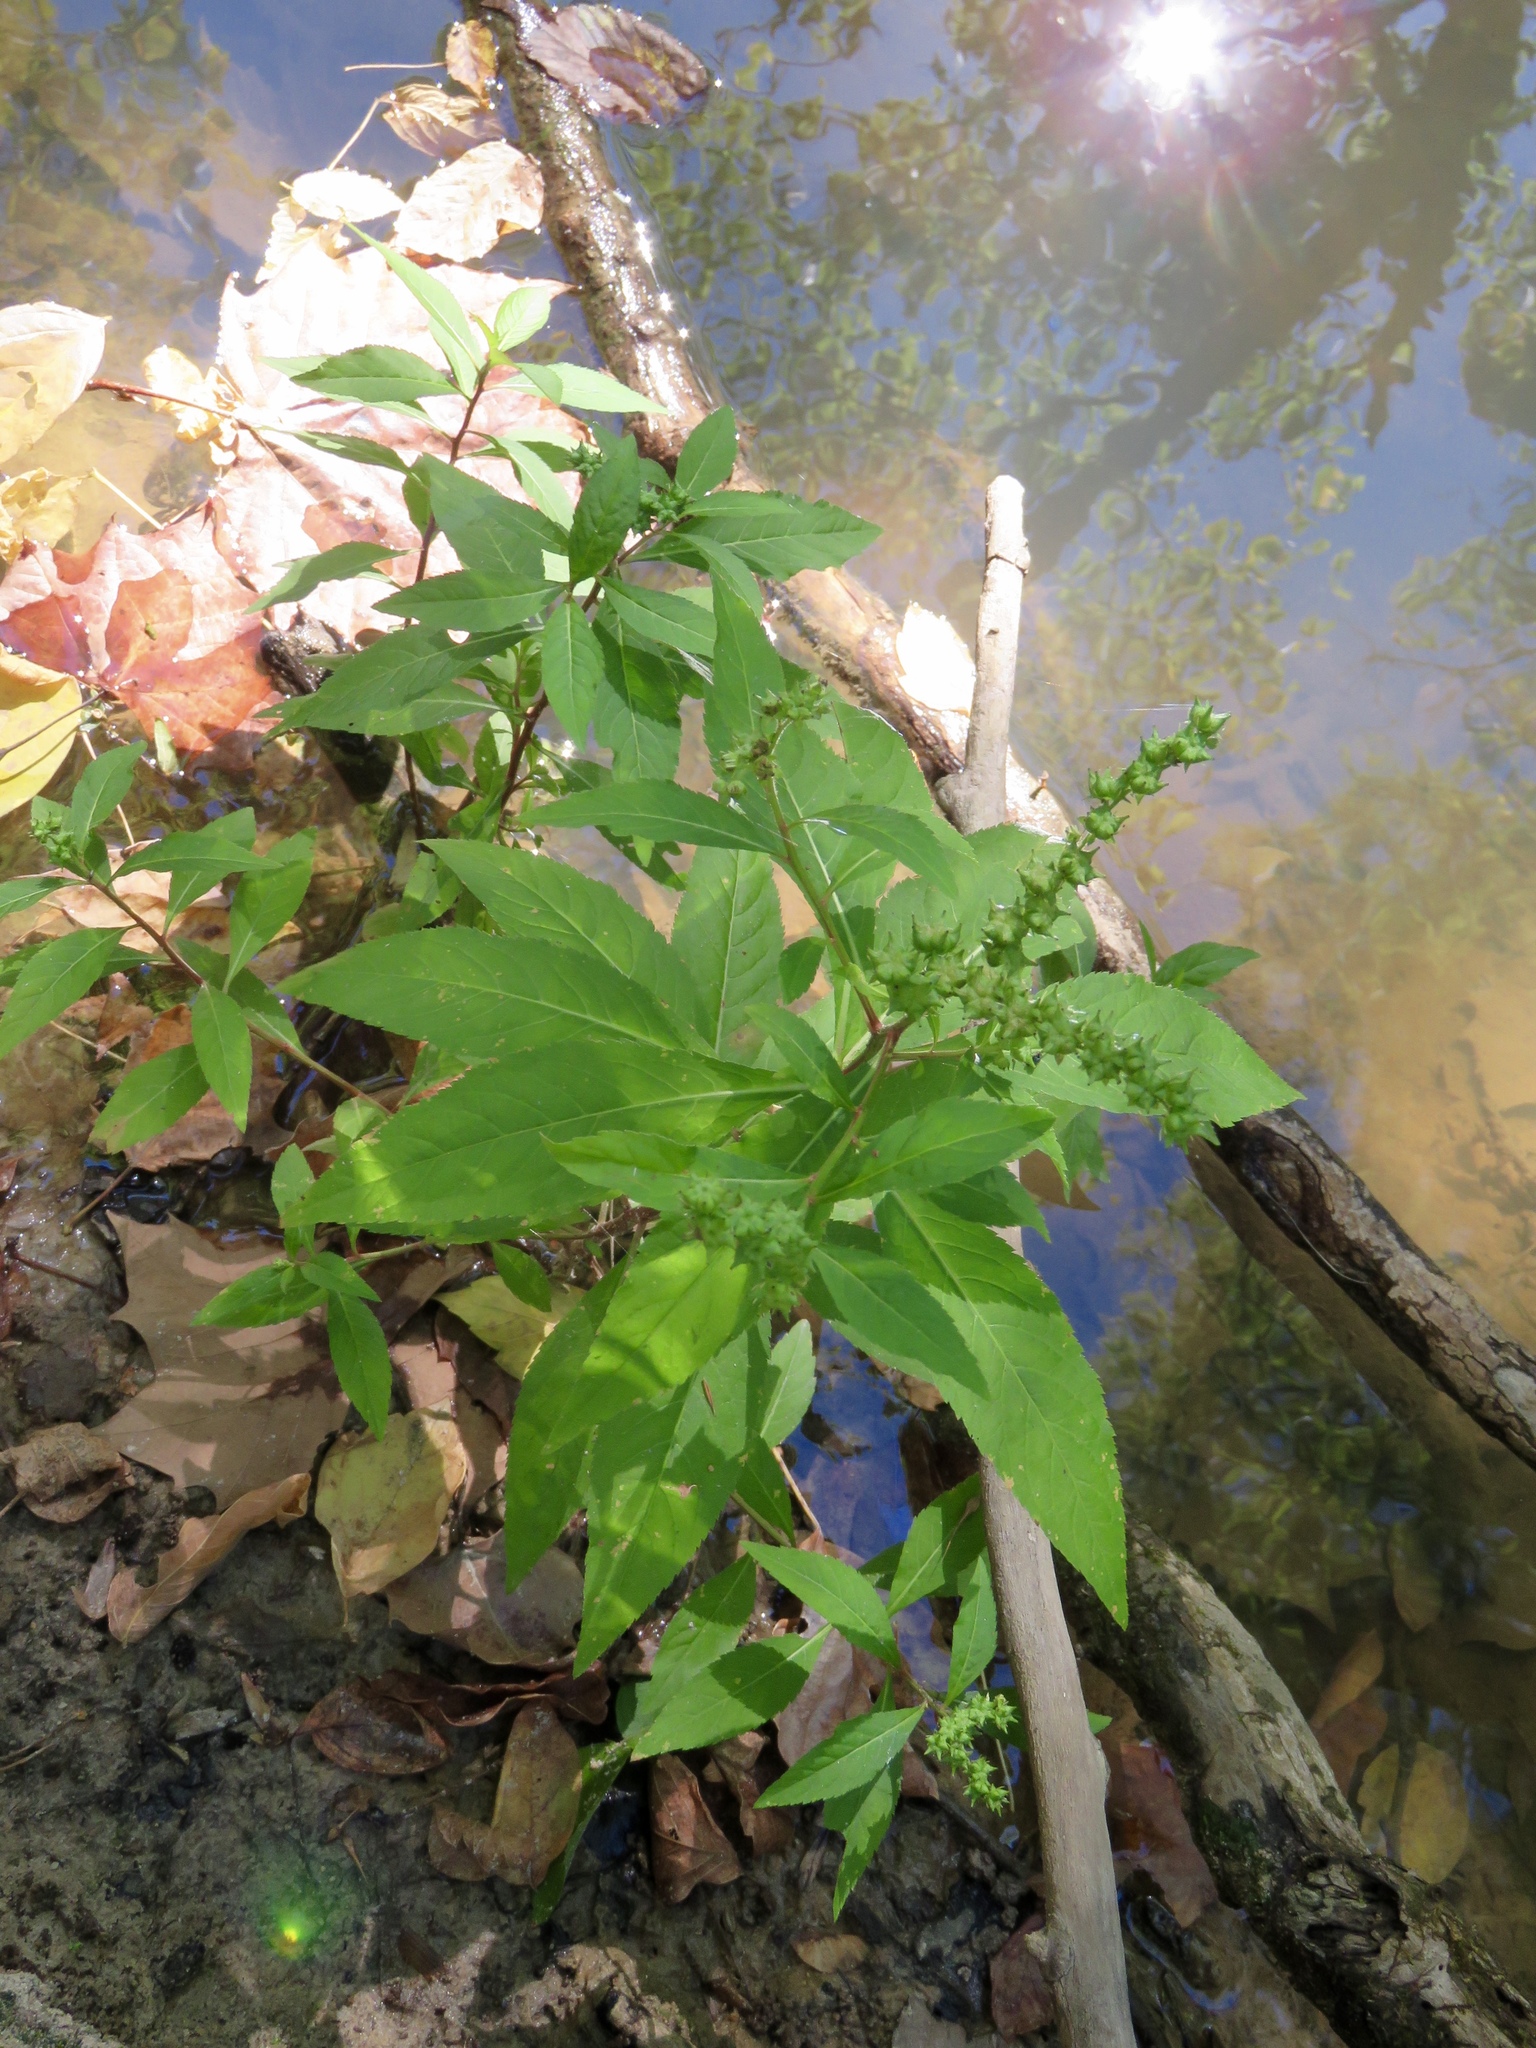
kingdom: Plantae
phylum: Tracheophyta
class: Magnoliopsida
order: Saxifragales
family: Penthoraceae
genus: Penthorum
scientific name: Penthorum sedoides
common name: Ditch stonecrop
